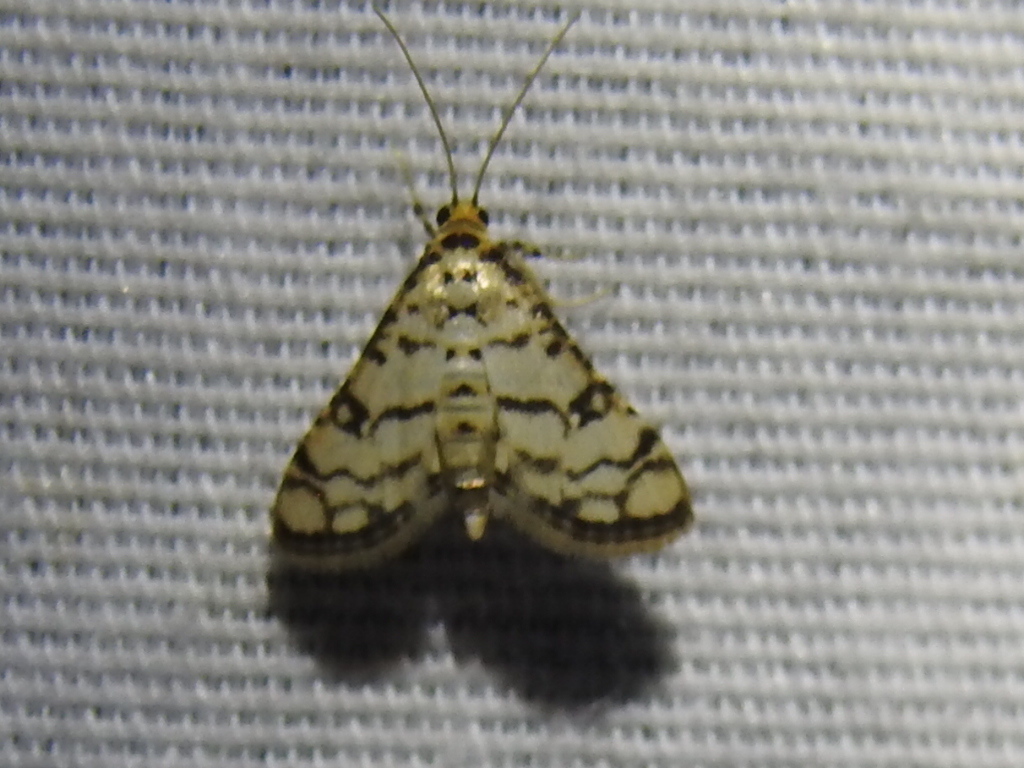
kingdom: Animalia
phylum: Arthropoda
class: Insecta
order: Lepidoptera
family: Crambidae
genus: Hileithia
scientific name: Hileithia magualis
